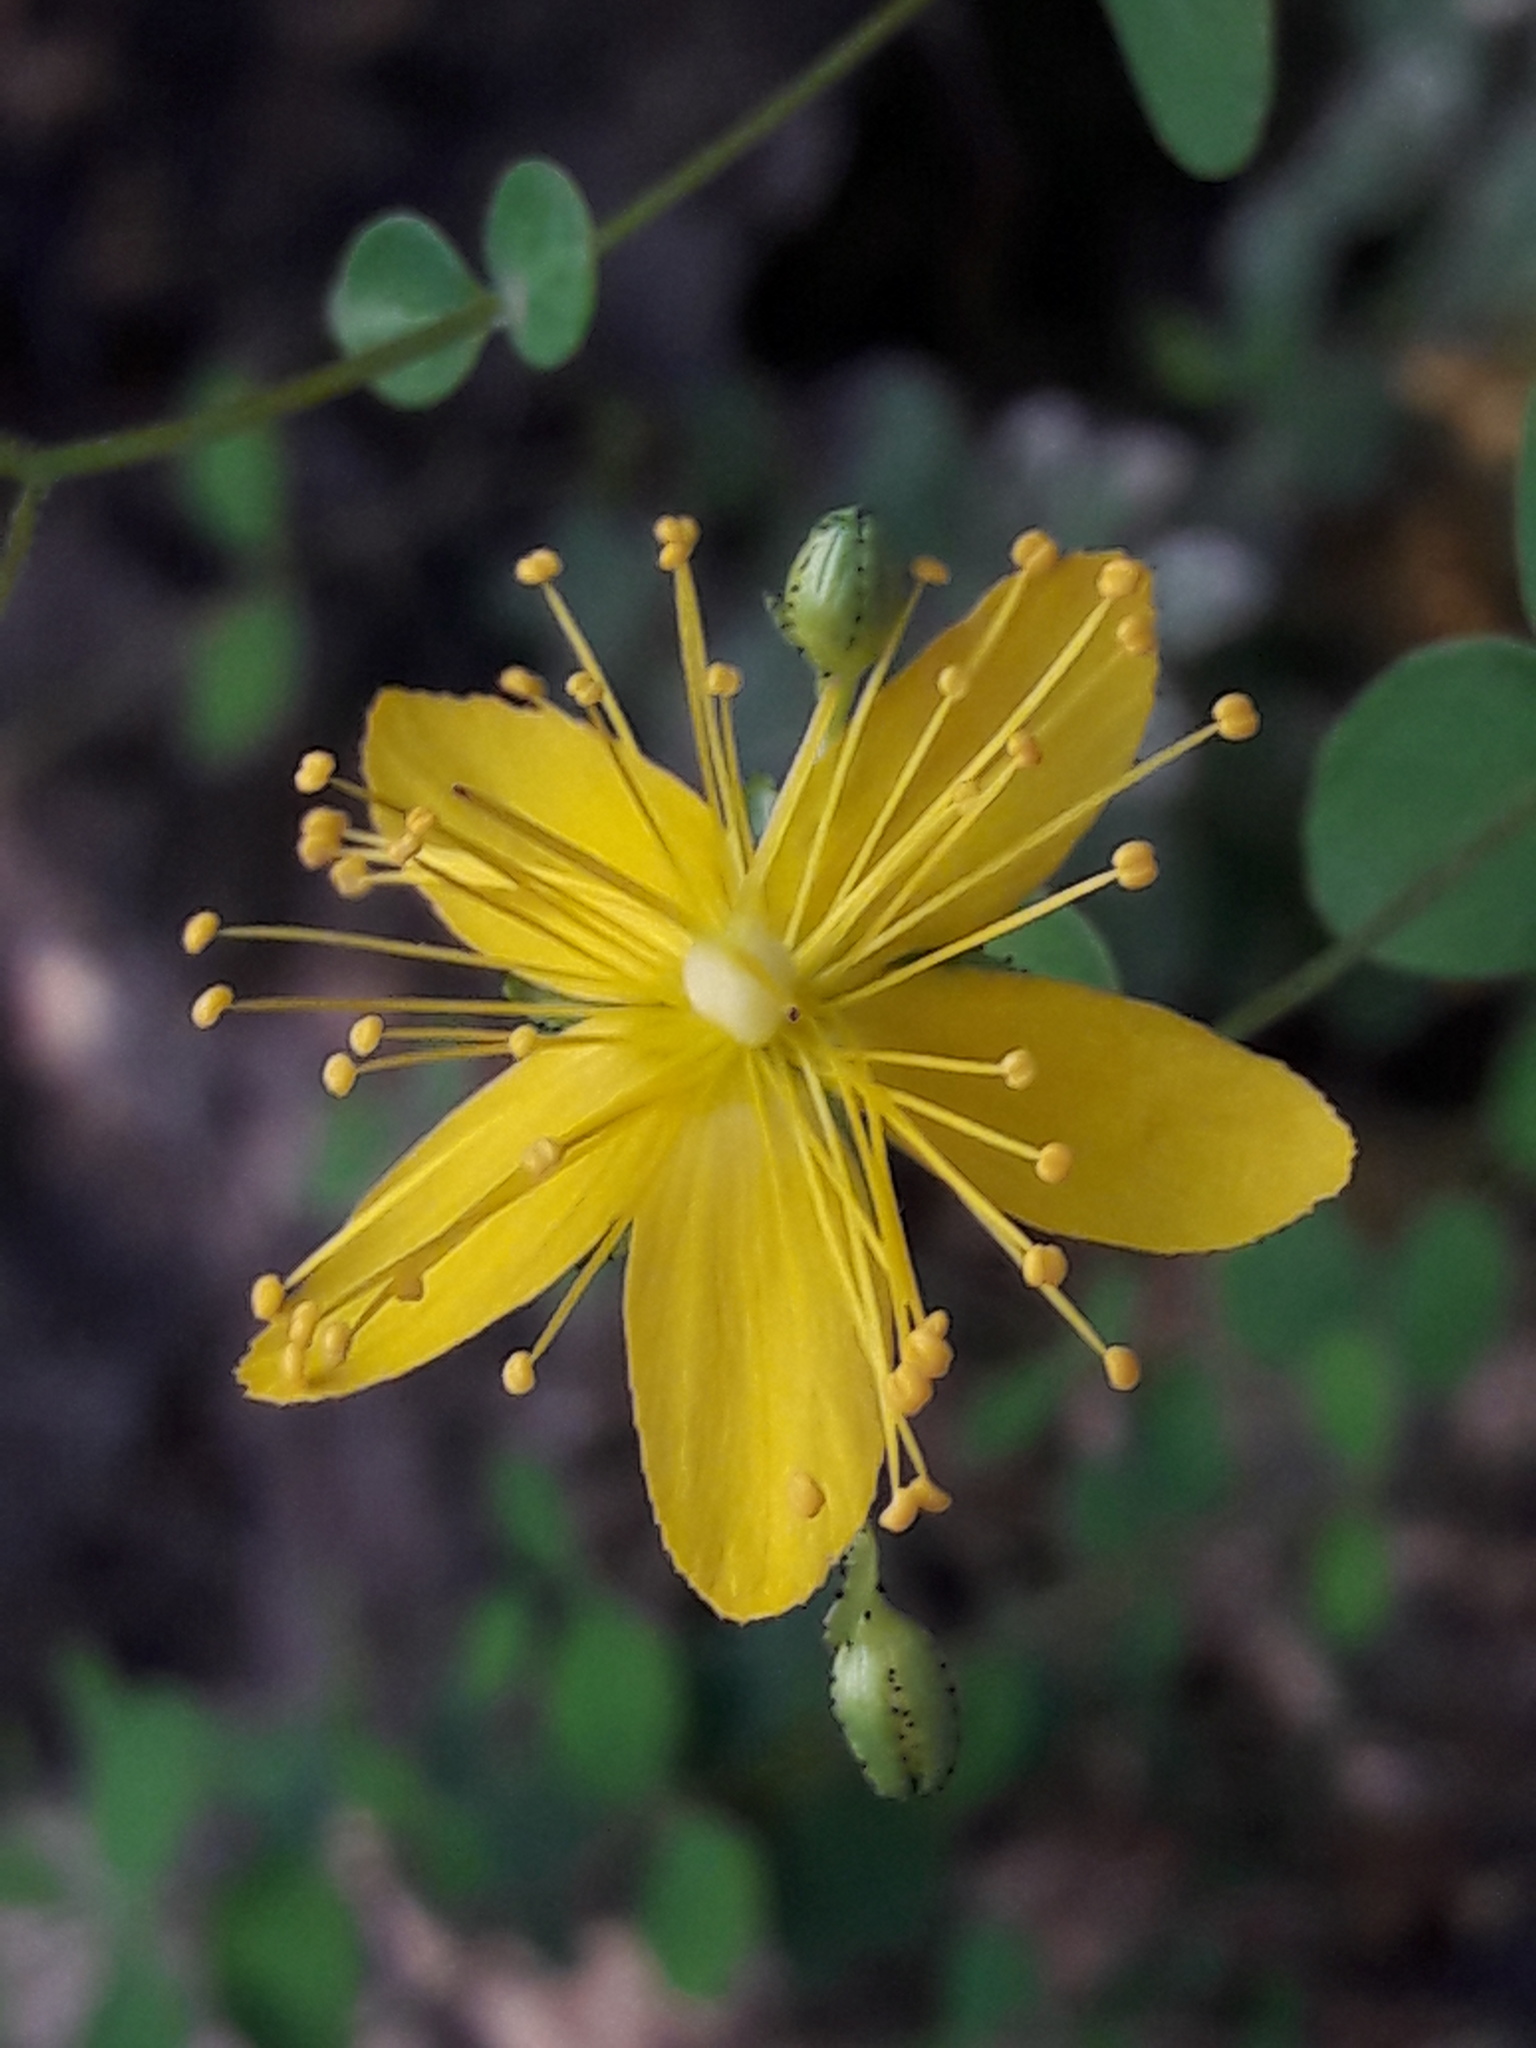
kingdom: Plantae
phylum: Tracheophyta
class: Magnoliopsida
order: Malpighiales
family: Hypericaceae
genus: Hypericum
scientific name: Hypericum nummularium
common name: Round-leaved st john's-wort
